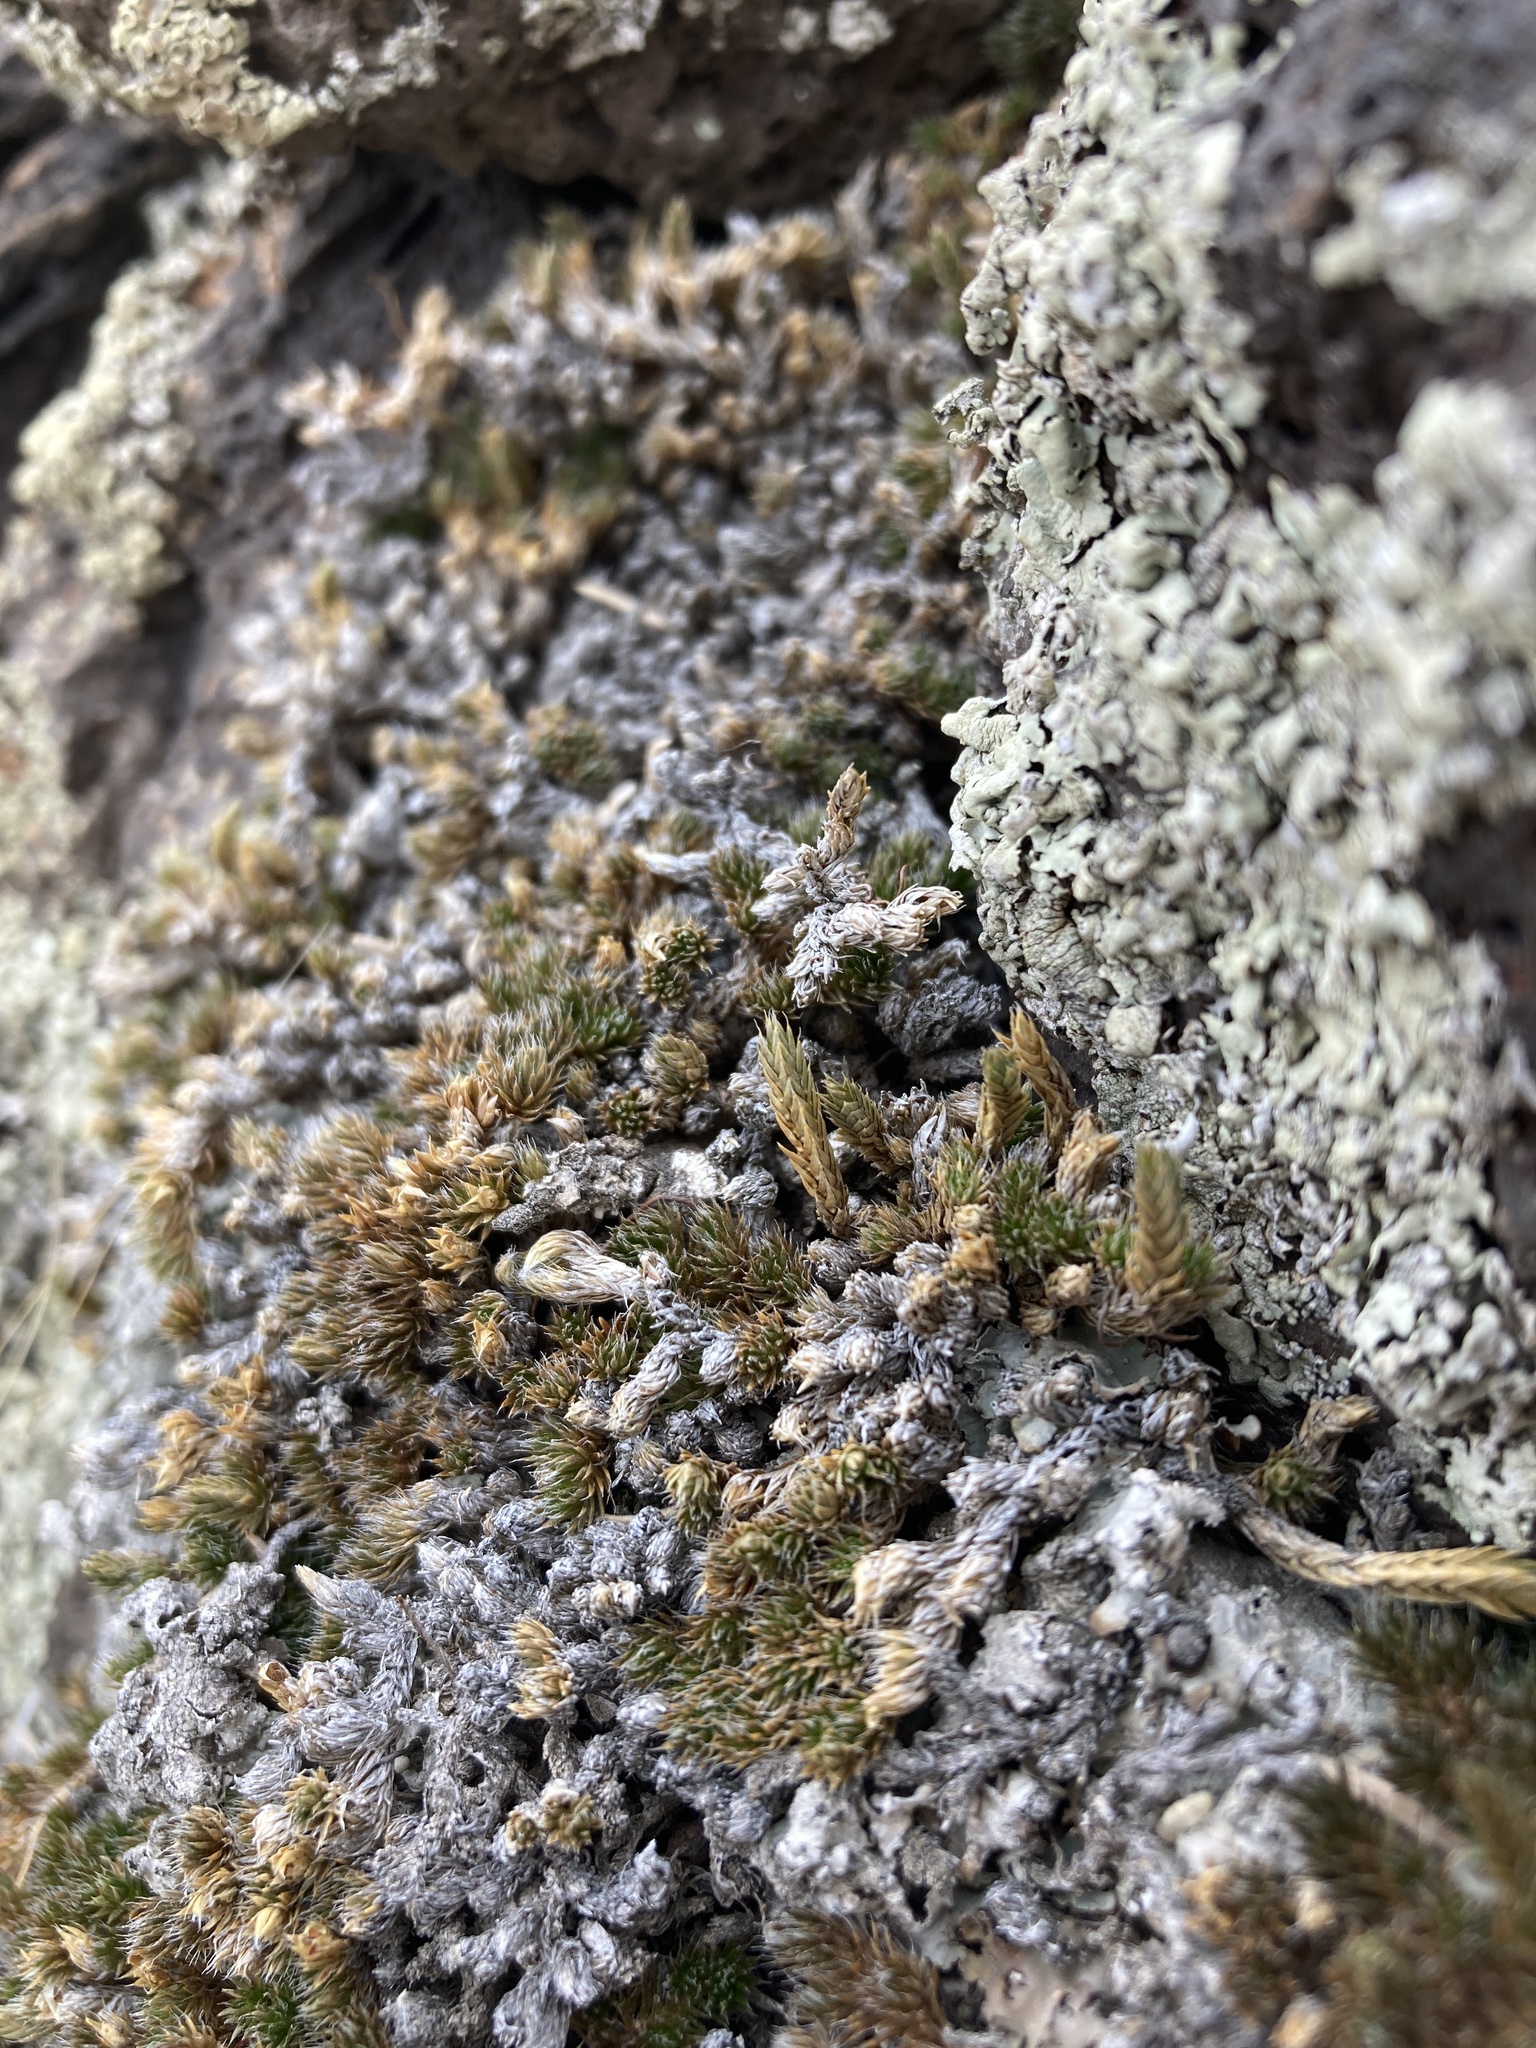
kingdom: Plantae
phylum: Tracheophyta
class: Lycopodiopsida
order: Selaginellales
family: Selaginellaceae
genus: Selaginella
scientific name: Selaginella densa
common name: Mountain spike-moss
